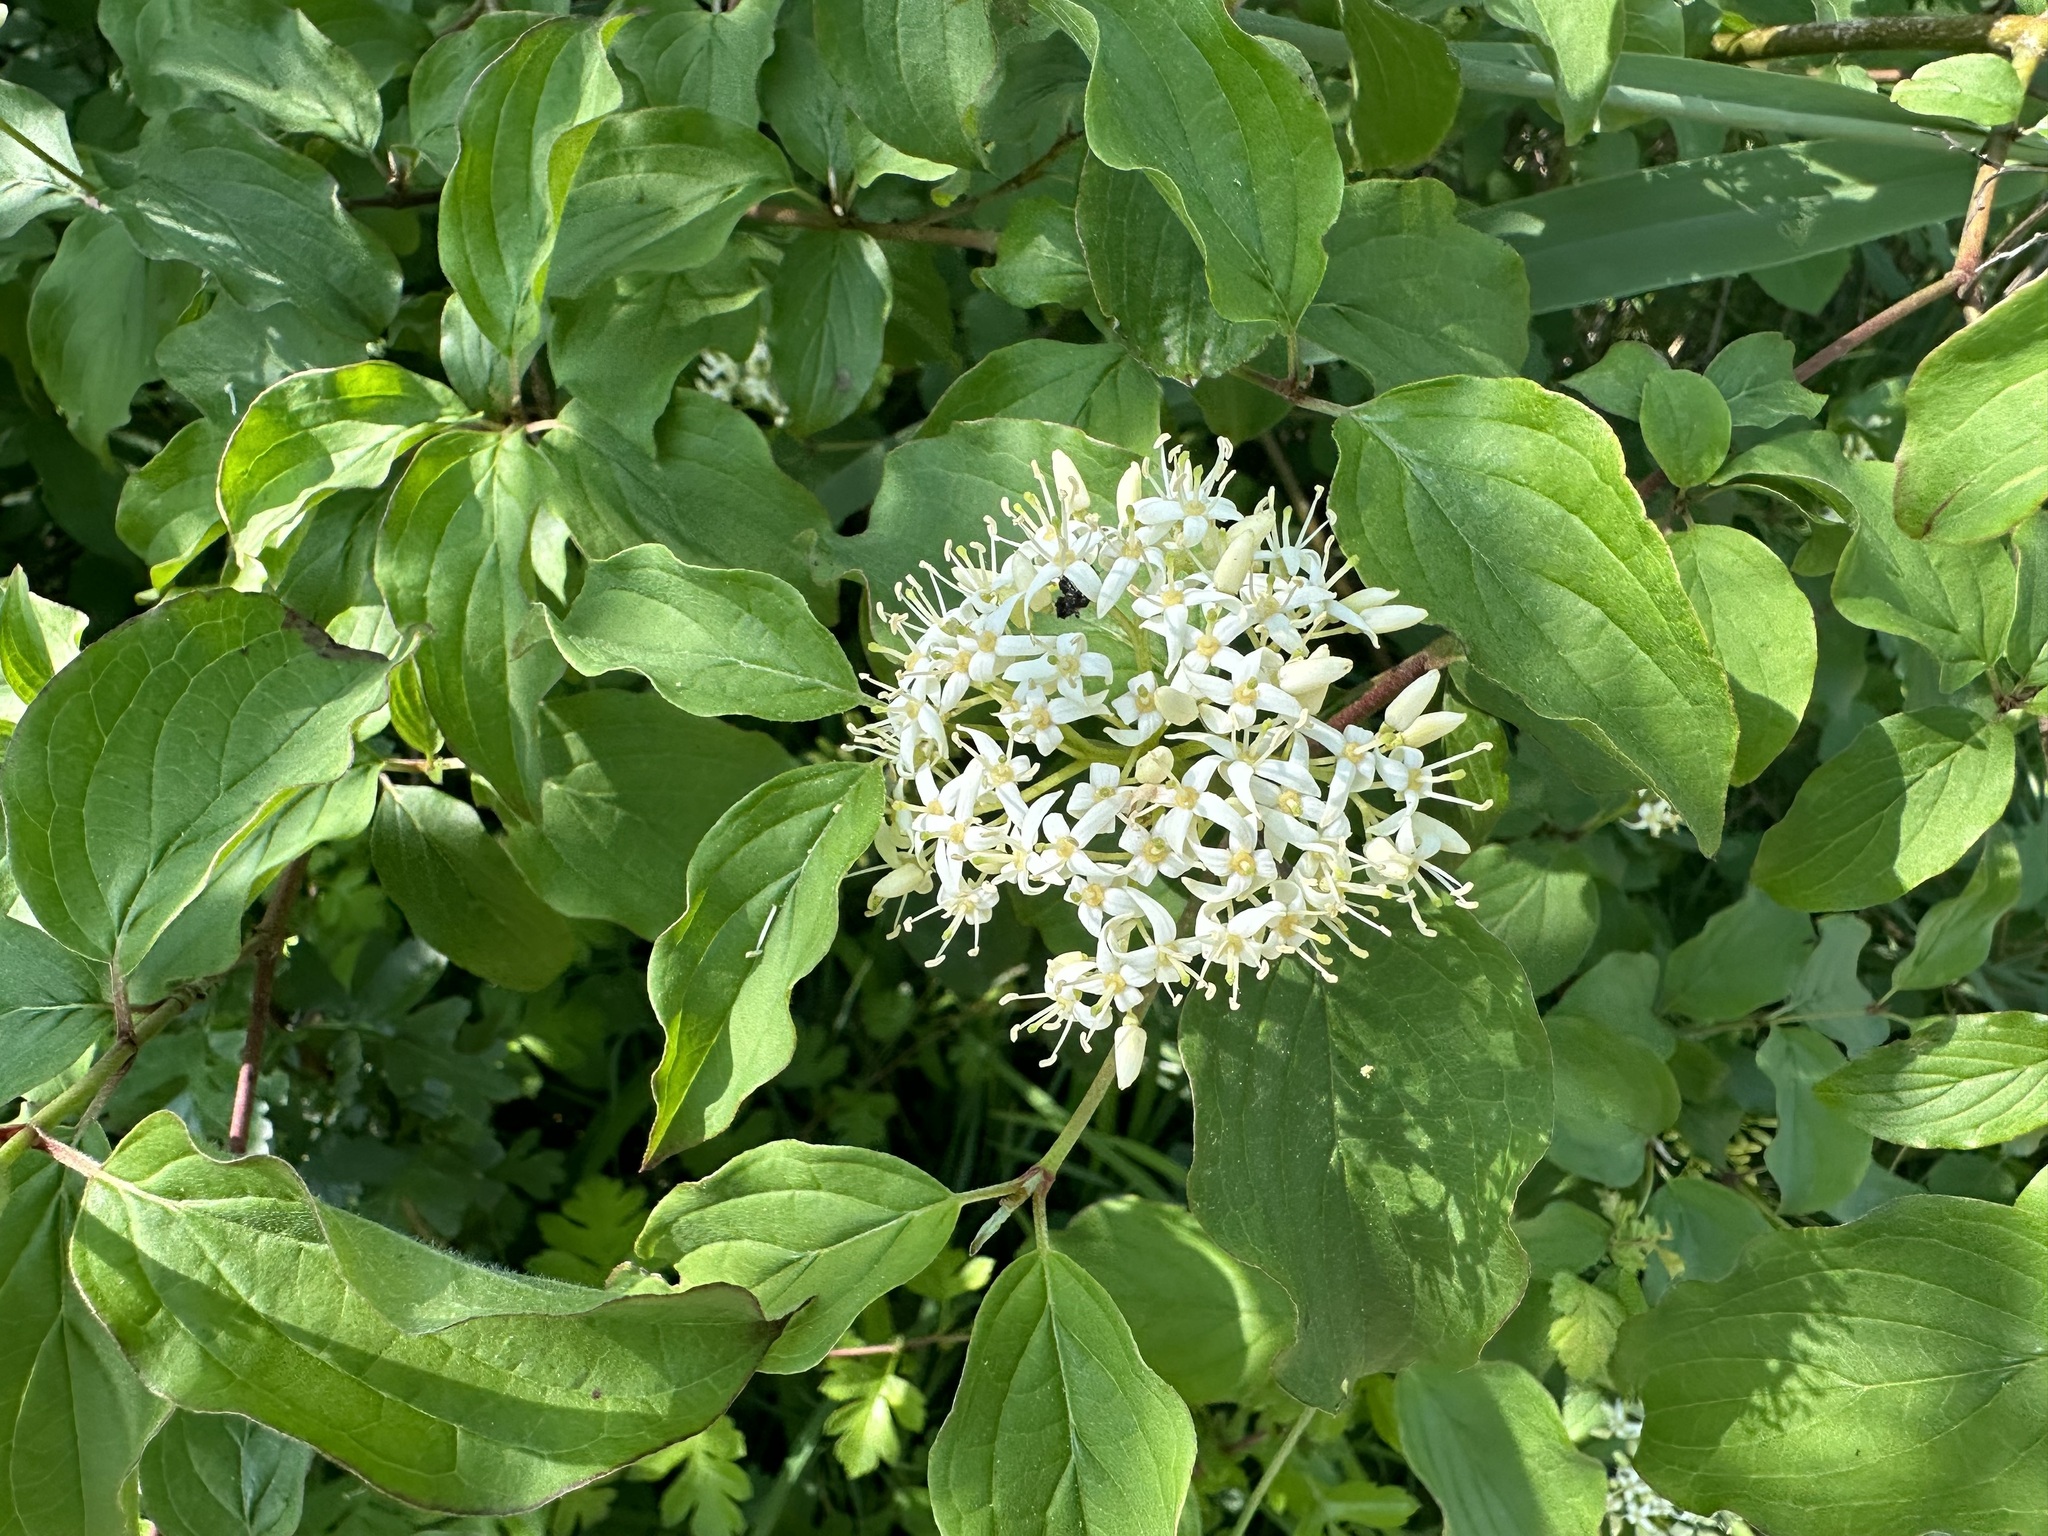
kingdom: Plantae
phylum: Tracheophyta
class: Magnoliopsida
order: Cornales
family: Cornaceae
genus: Cornus
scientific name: Cornus sanguinea
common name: Dogwood
